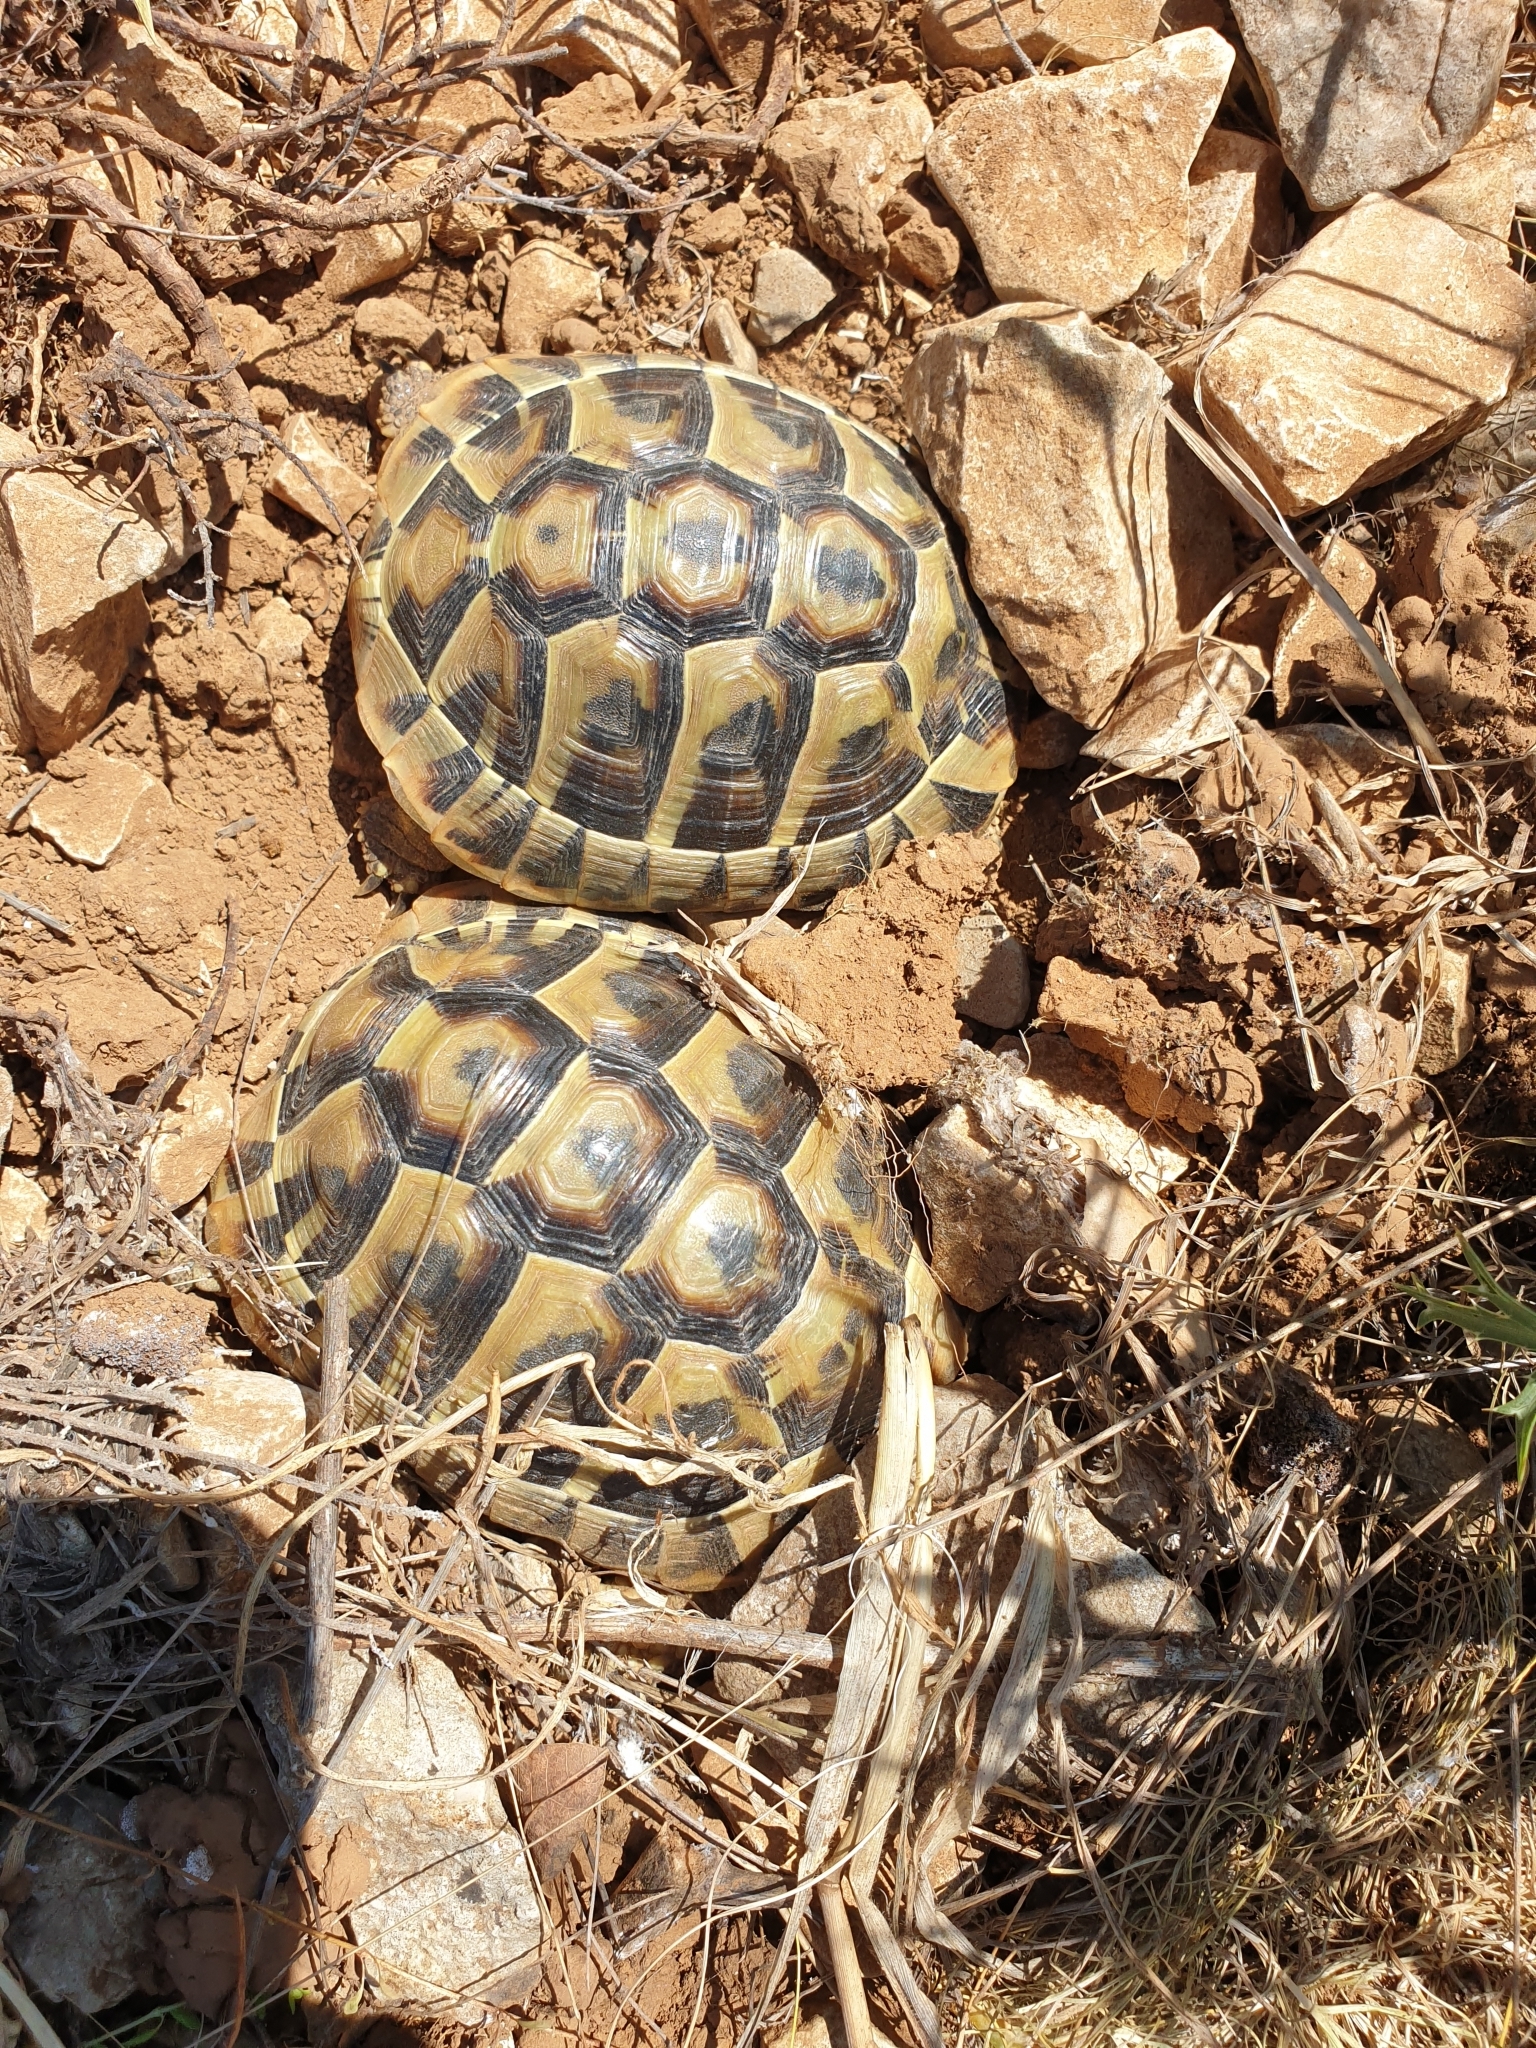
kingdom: Animalia
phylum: Chordata
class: Testudines
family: Testudinidae
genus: Testudo
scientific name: Testudo hermanni
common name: Hermann's tortoise
